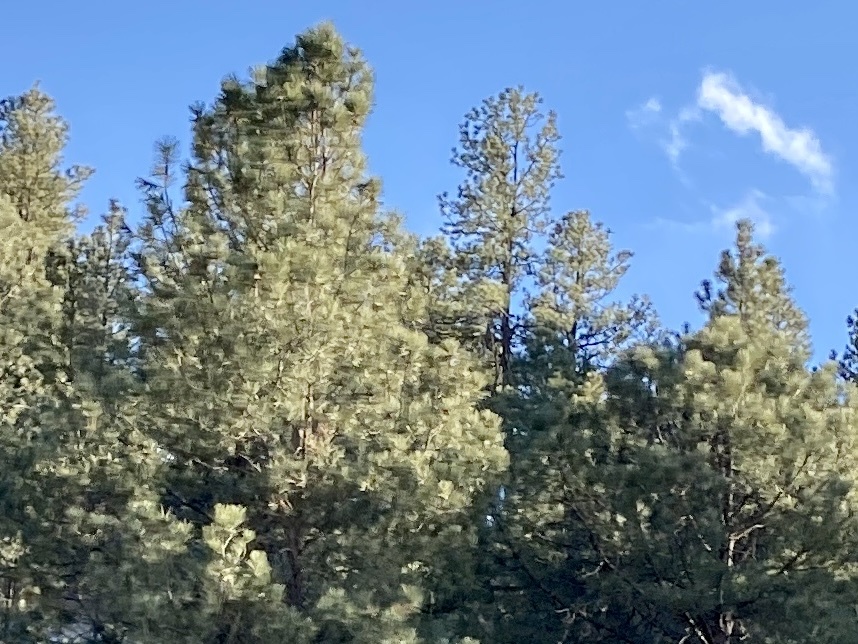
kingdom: Plantae
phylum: Tracheophyta
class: Pinopsida
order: Pinales
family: Pinaceae
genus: Pinus
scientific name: Pinus ponderosa
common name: Western yellow-pine
